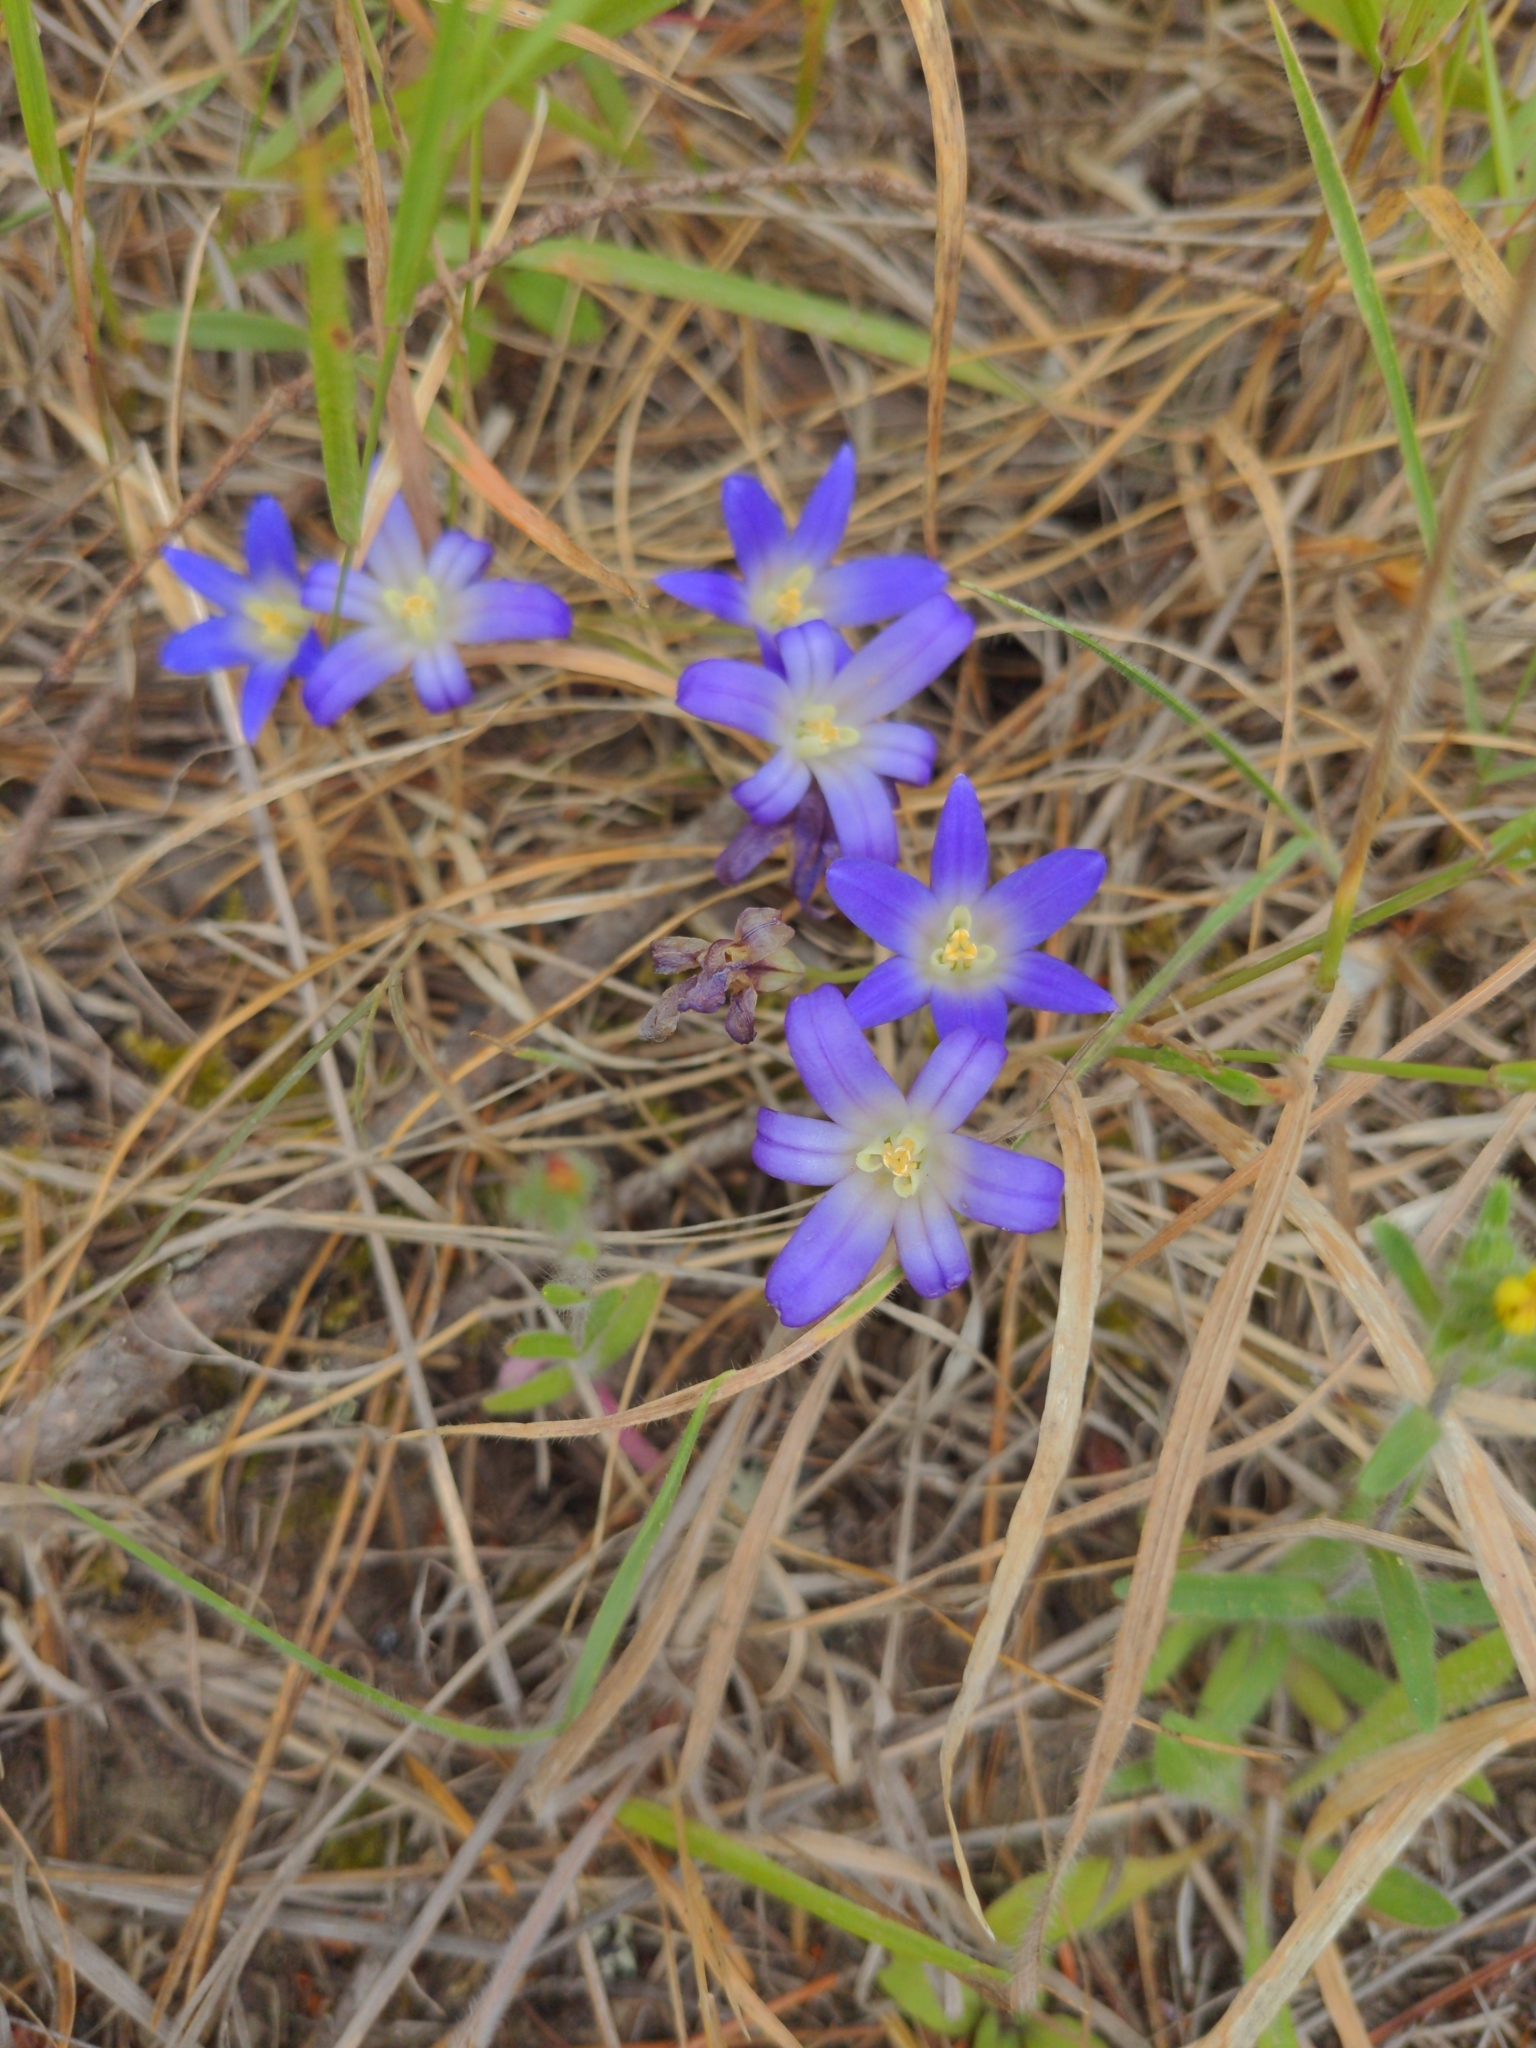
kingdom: Plantae
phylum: Tracheophyta
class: Liliopsida
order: Asparagales
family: Asparagaceae
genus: Brodiaea
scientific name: Brodiaea terrestris
